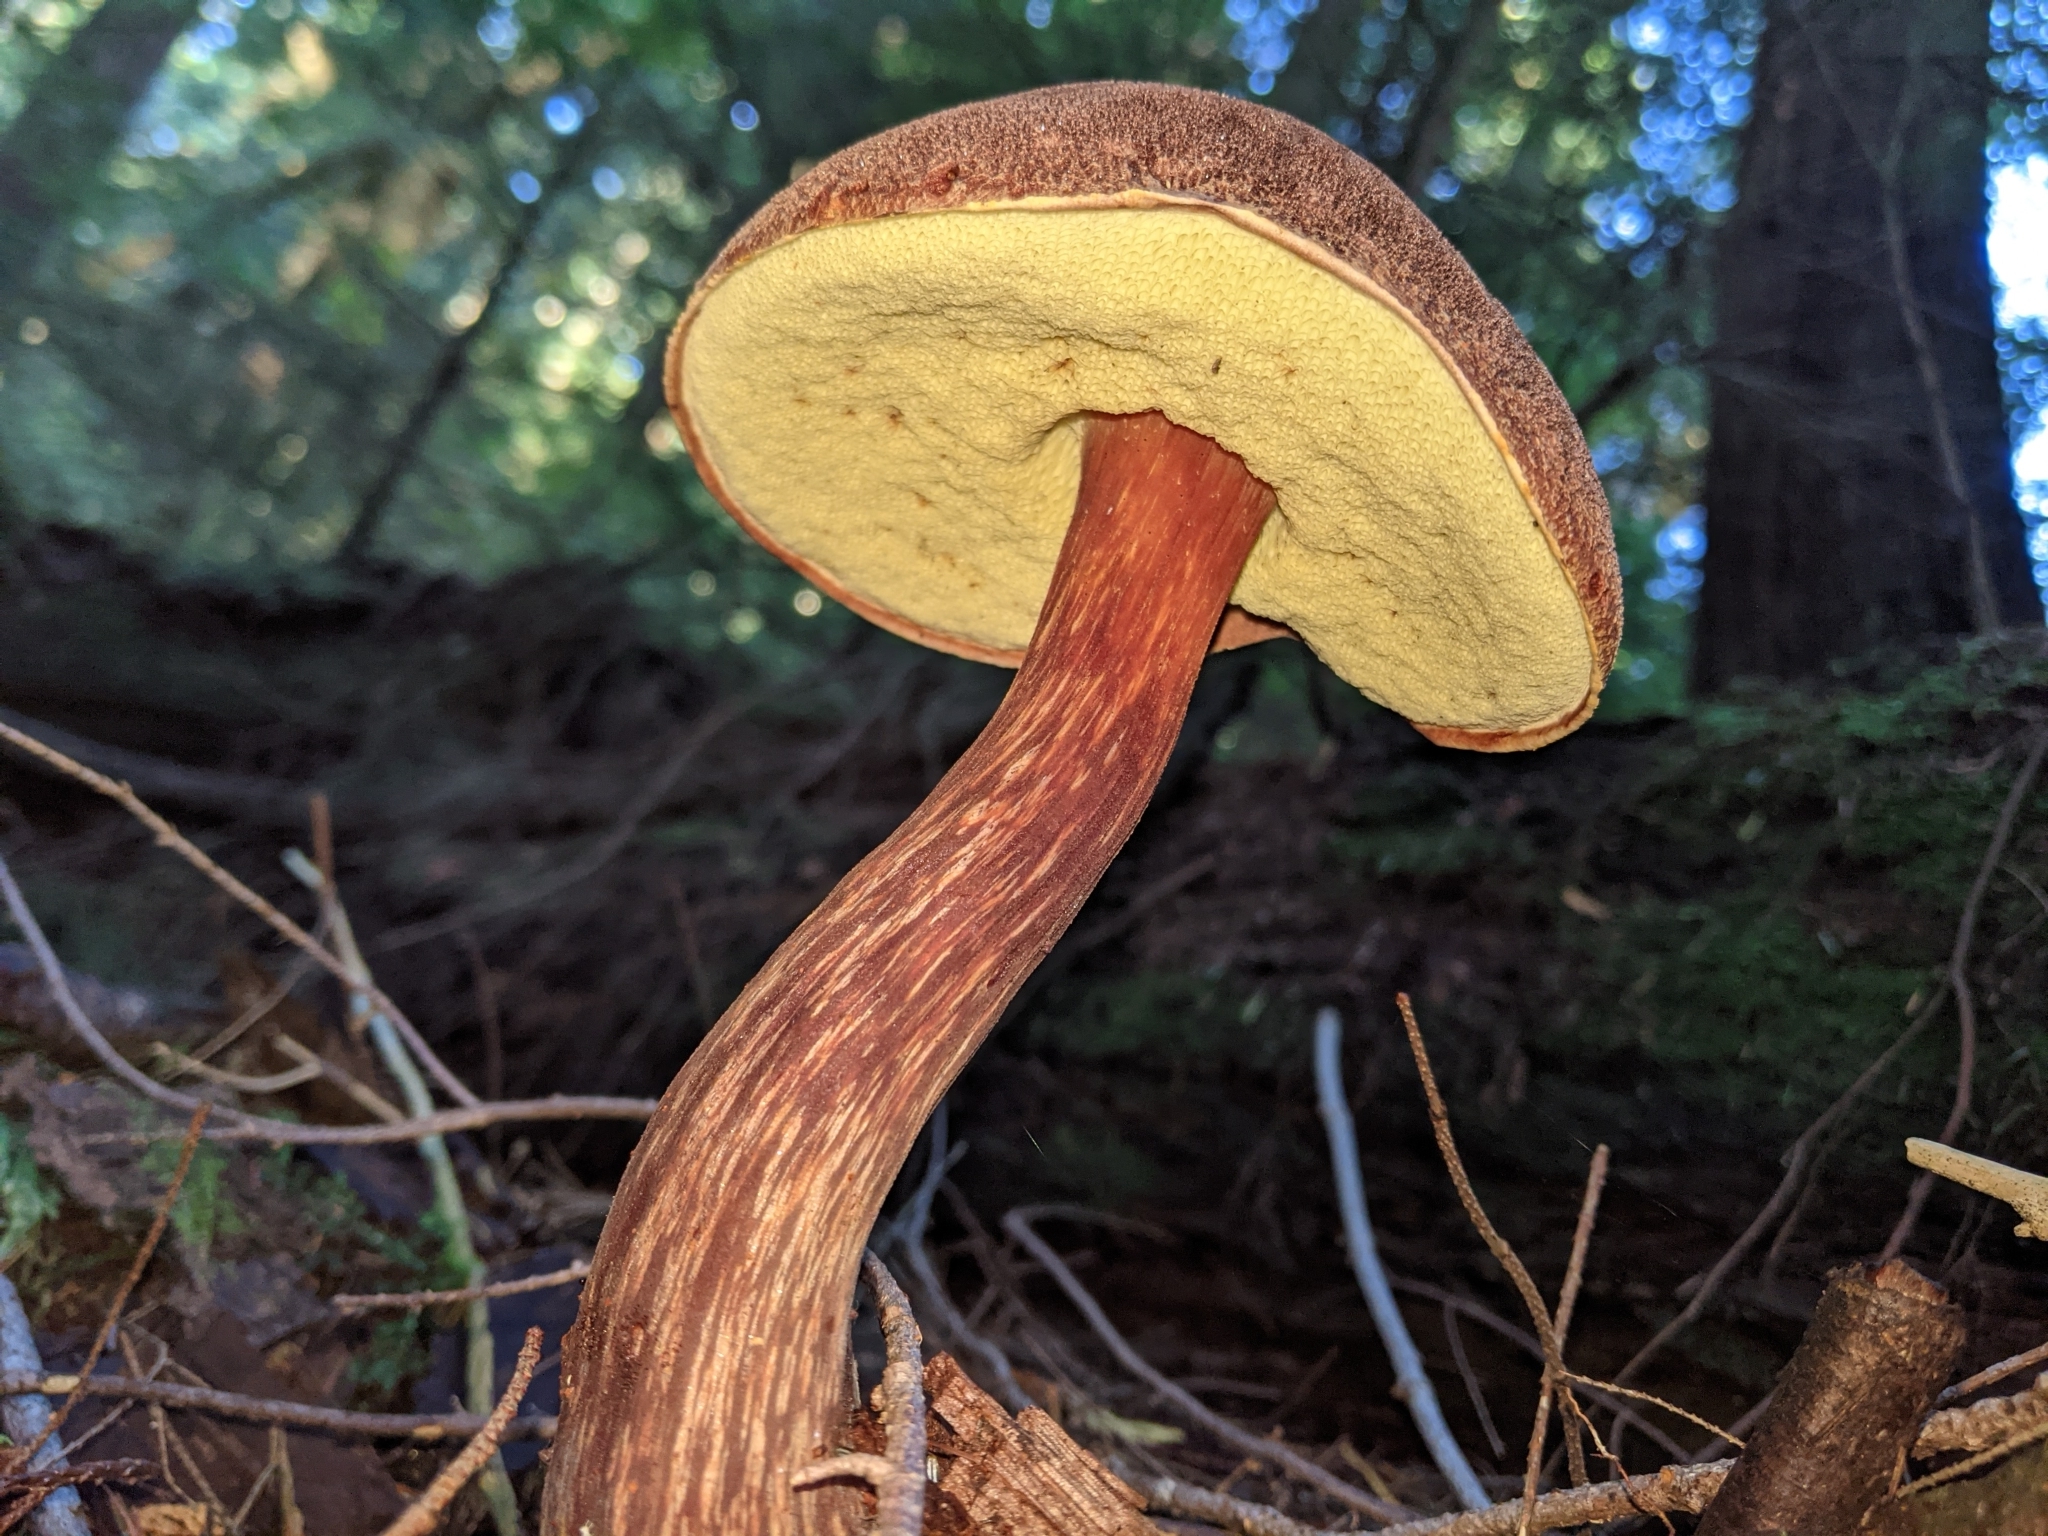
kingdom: Fungi
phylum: Basidiomycota
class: Agaricomycetes
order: Boletales
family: Boletaceae
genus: Aureoboletus
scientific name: Aureoboletus mirabilis
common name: Admirable bolete
